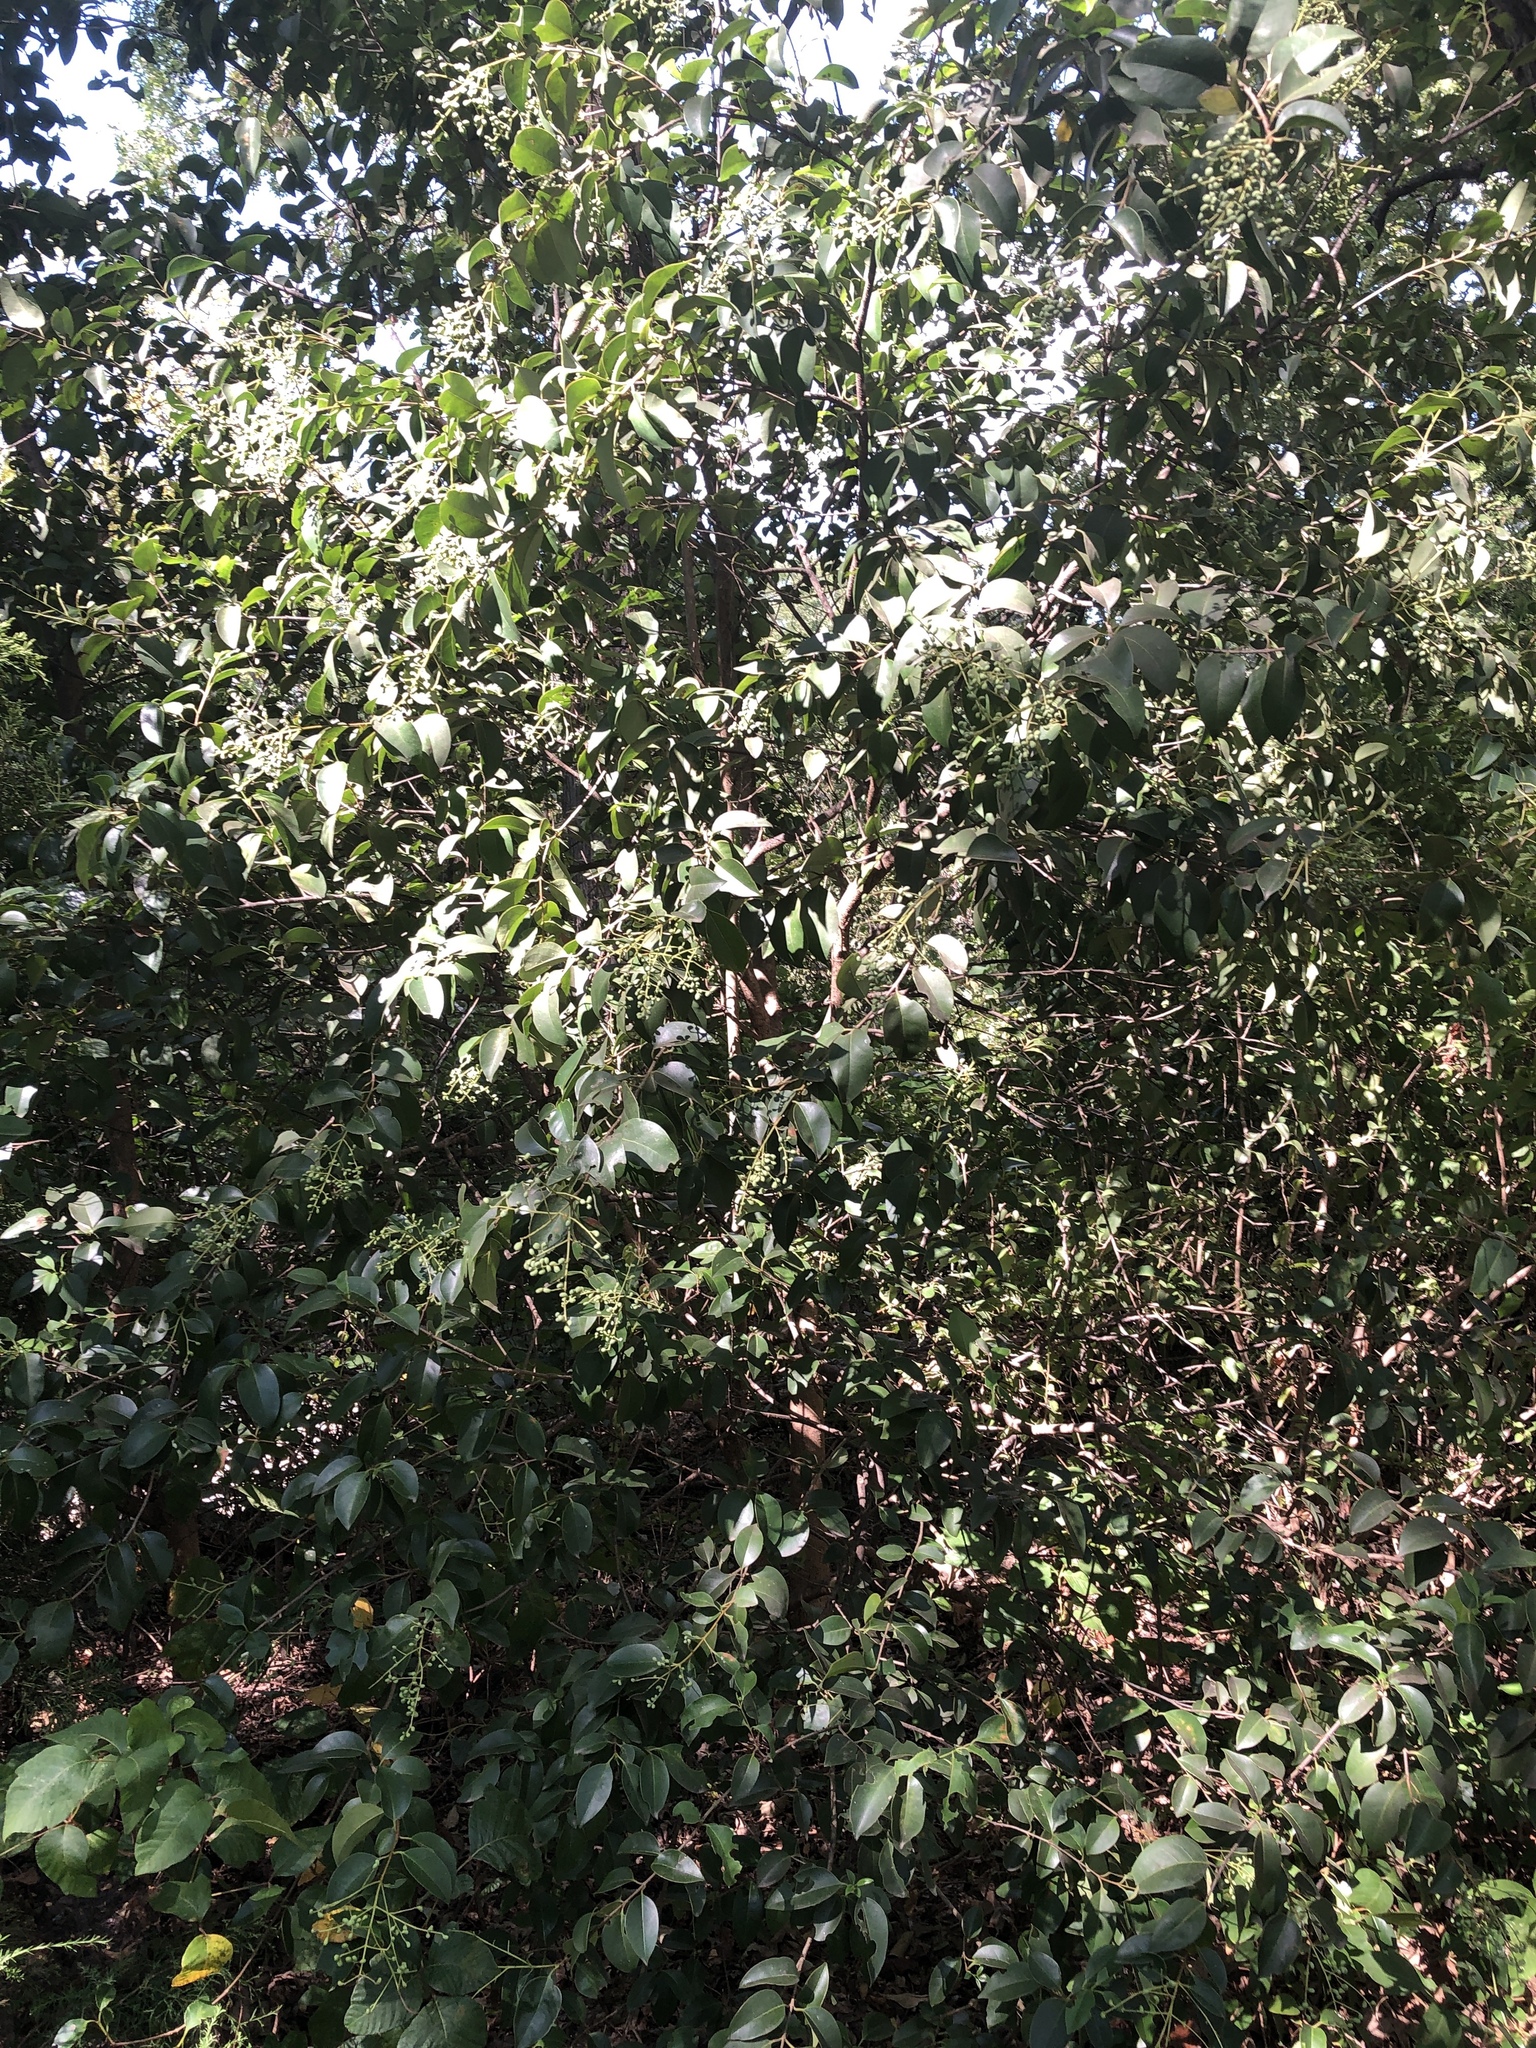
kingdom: Plantae
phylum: Tracheophyta
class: Magnoliopsida
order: Lamiales
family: Oleaceae
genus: Ligustrum
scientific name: Ligustrum lucidum
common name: Glossy privet
